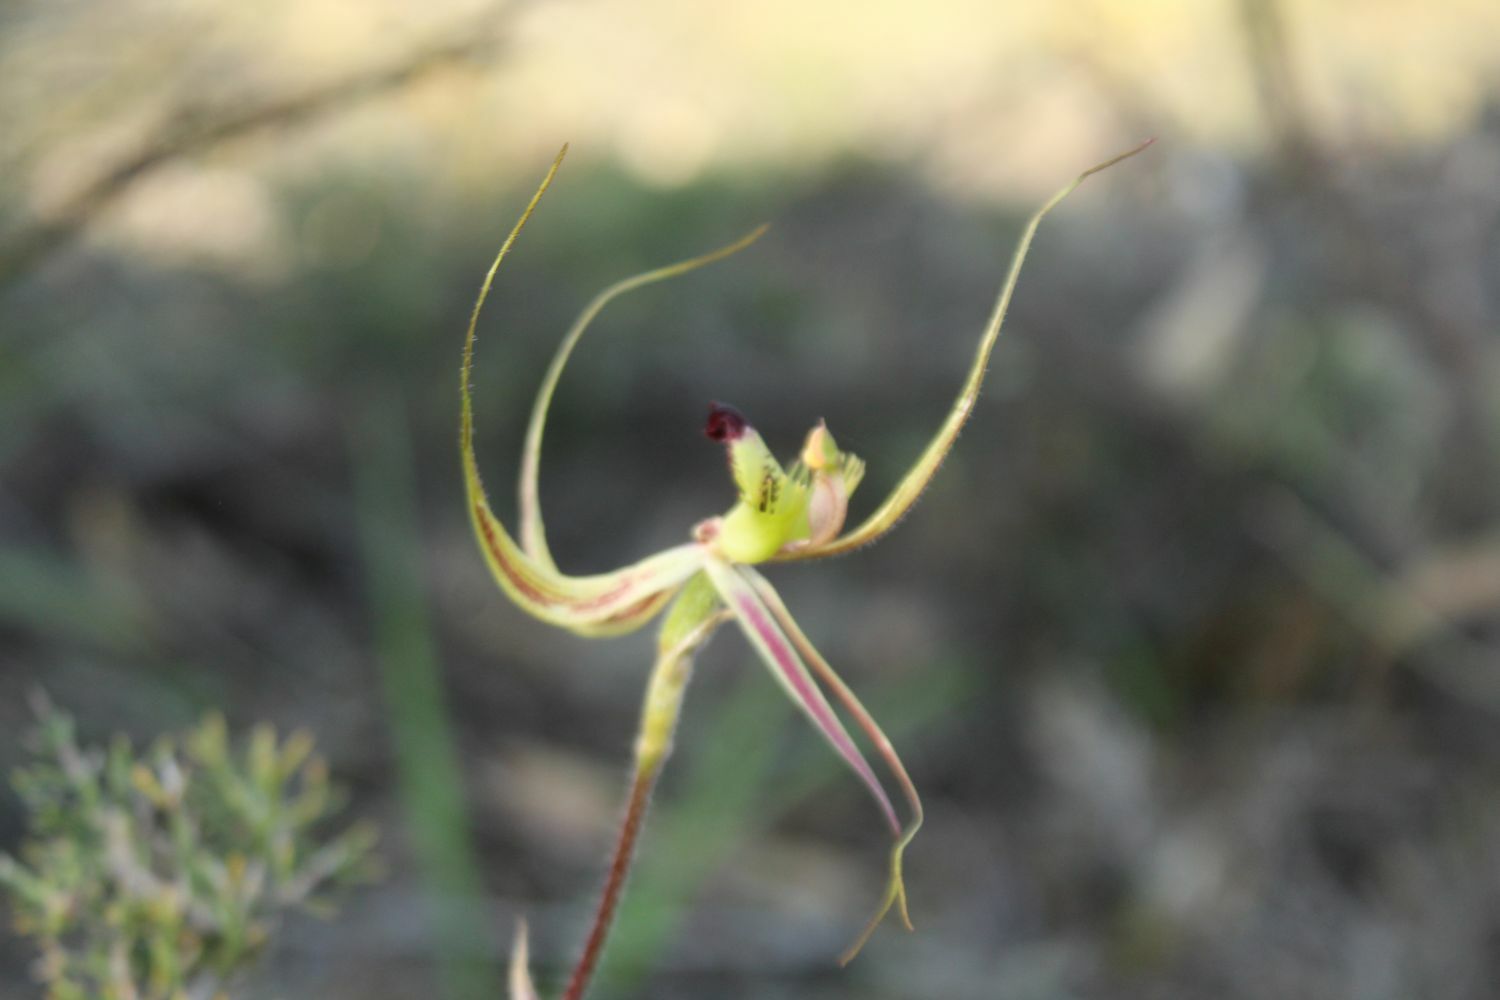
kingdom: Plantae
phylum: Tracheophyta
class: Liliopsida
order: Asparagales
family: Orchidaceae
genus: Caladenia
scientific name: Caladenia falcata
